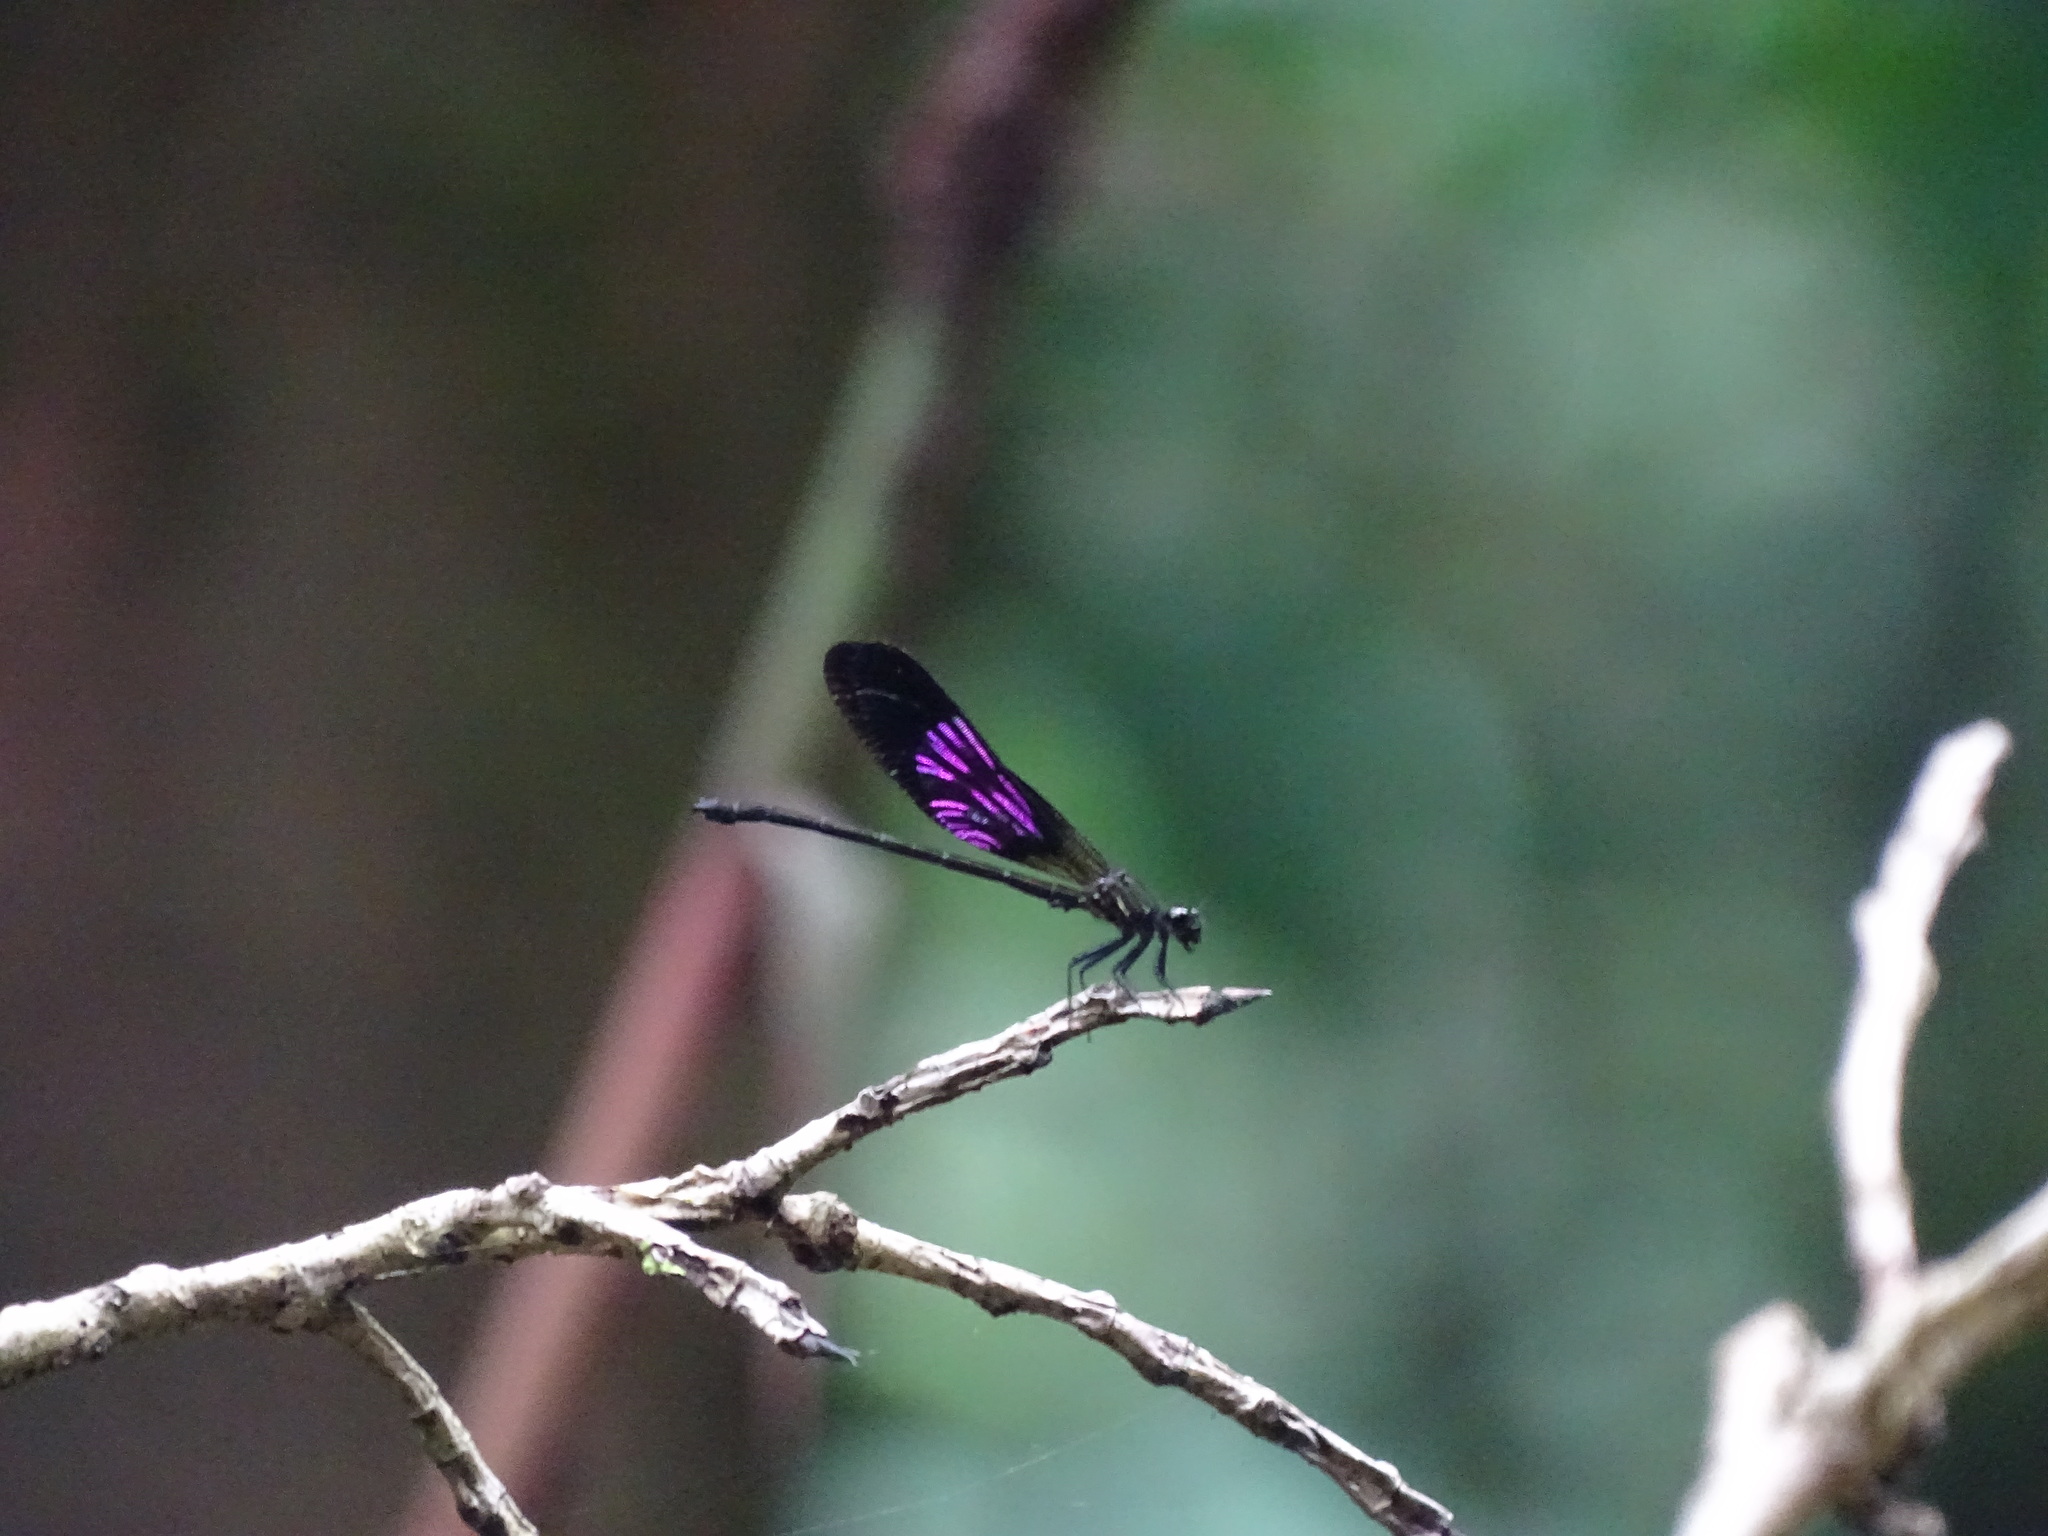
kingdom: Animalia
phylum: Arthropoda
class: Insecta
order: Odonata
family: Euphaeidae
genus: Euphaea
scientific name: Euphaea variegata
